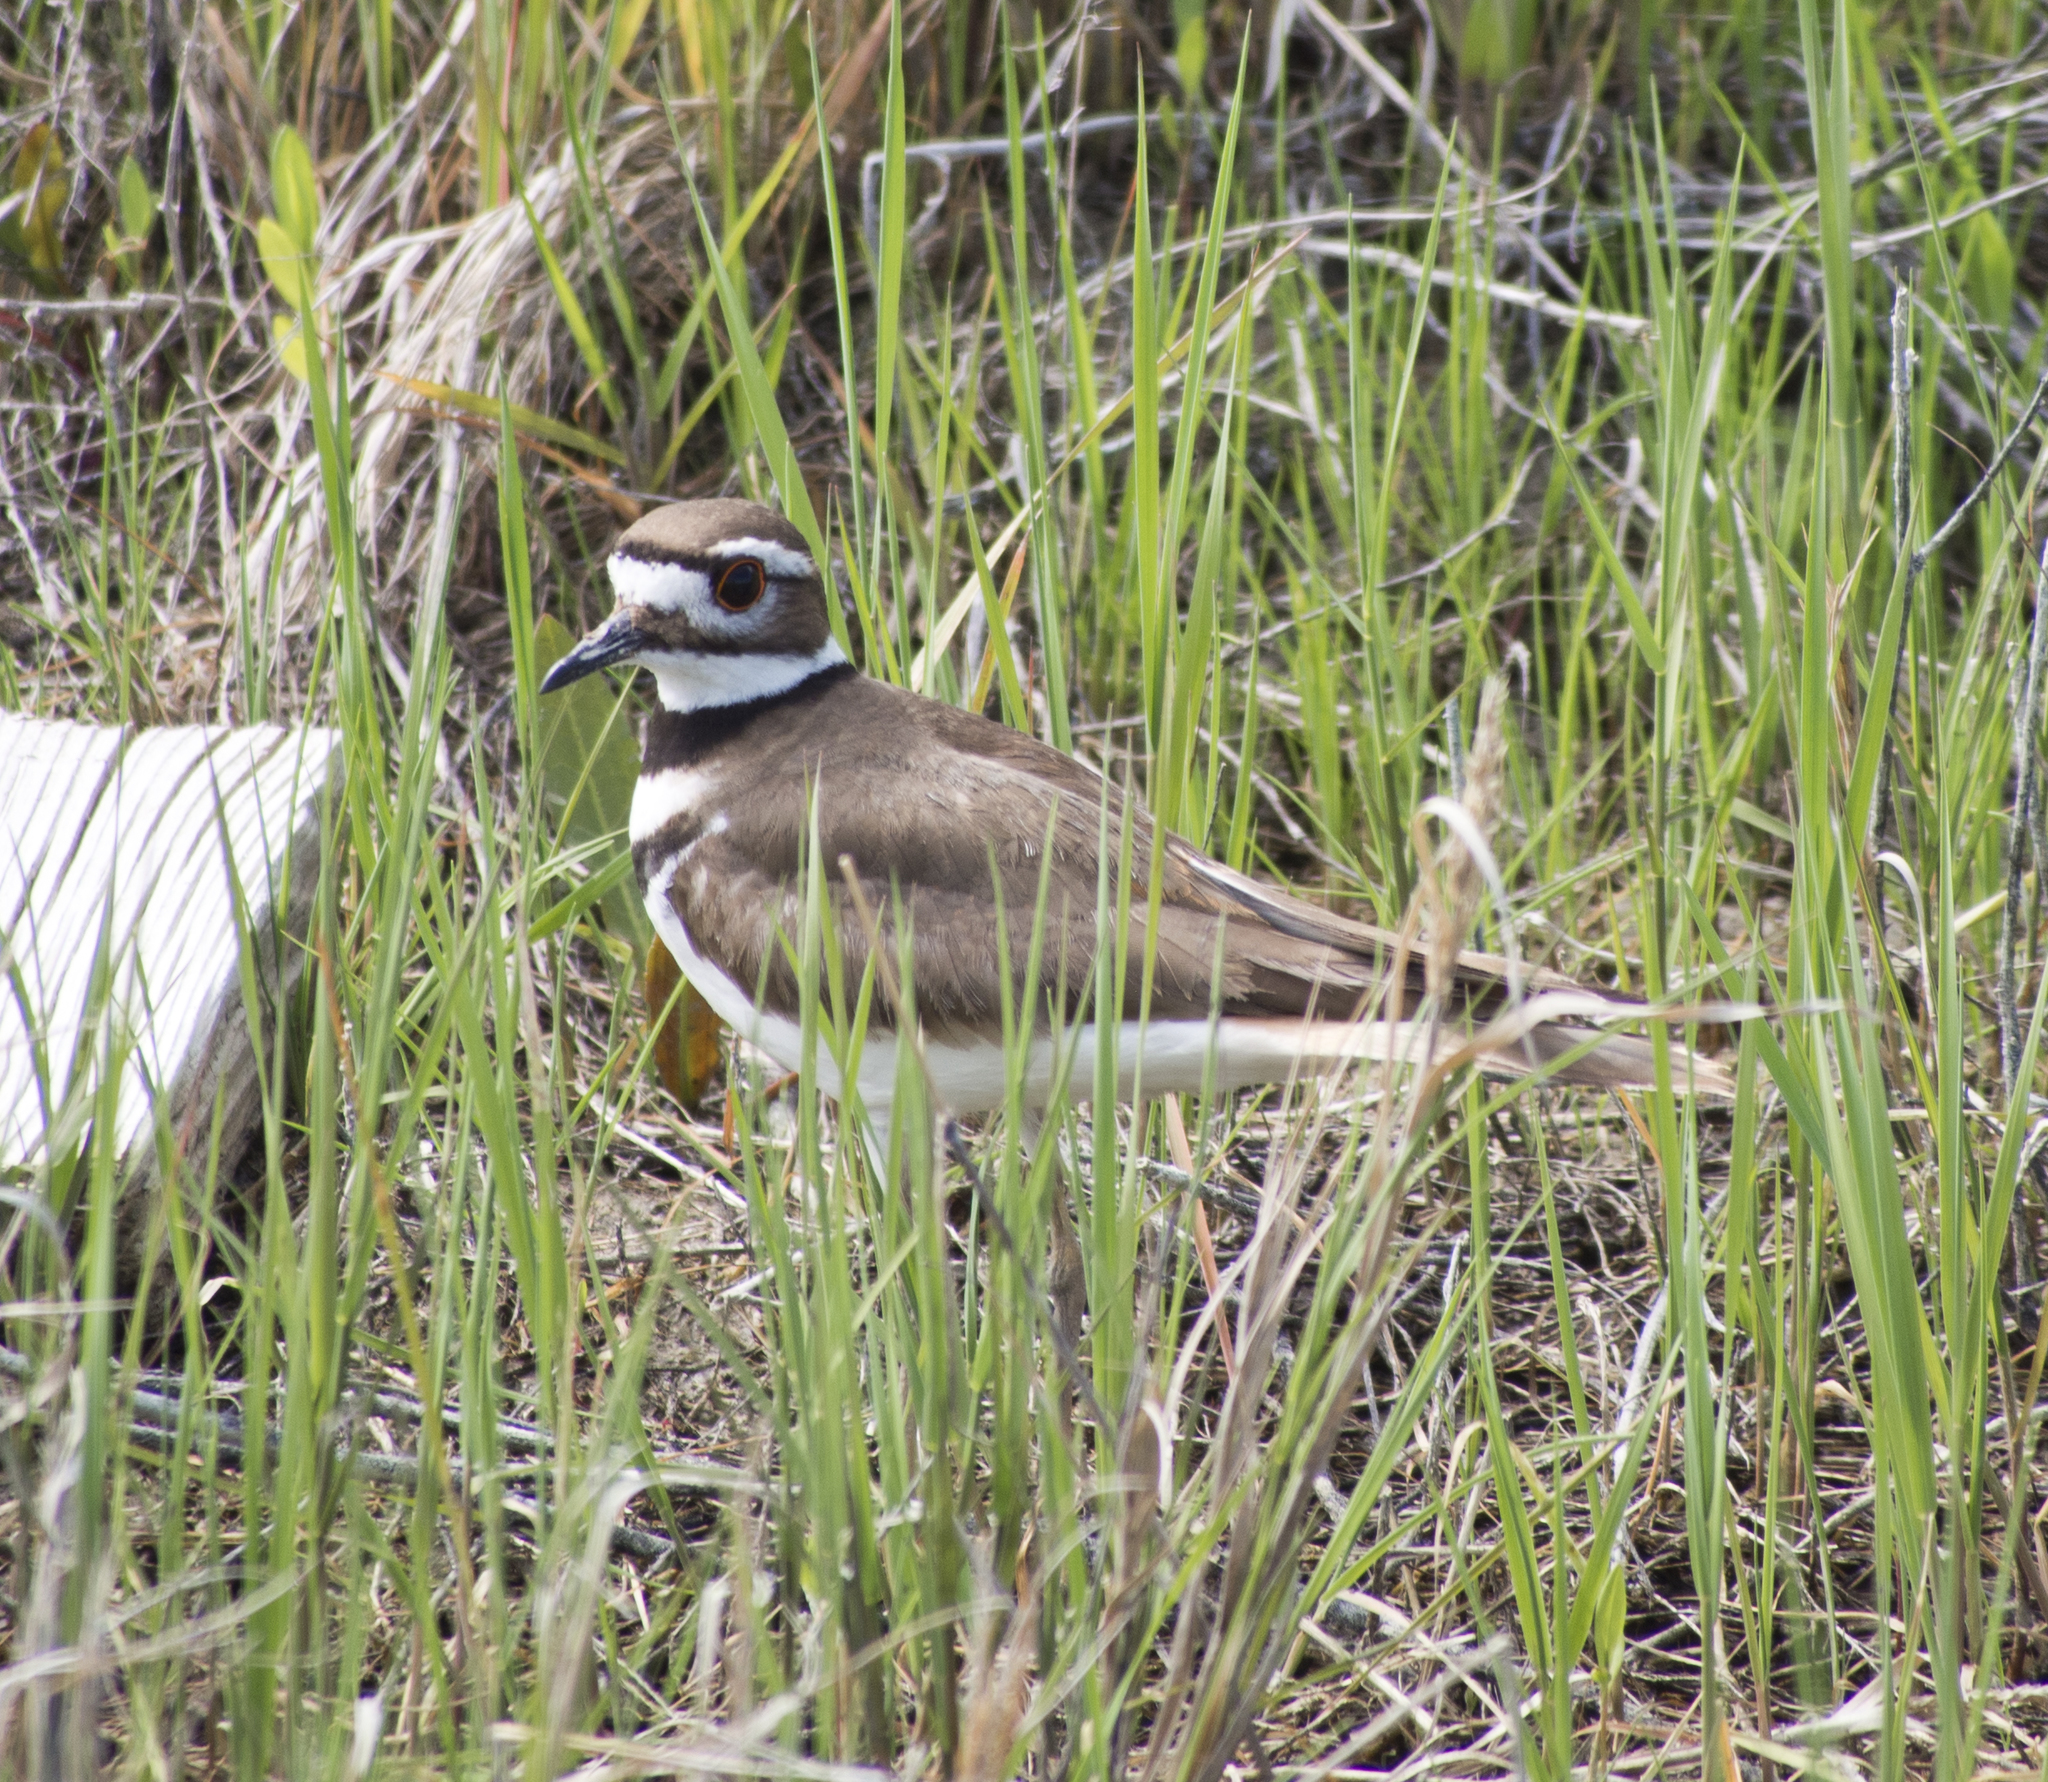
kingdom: Animalia
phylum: Chordata
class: Aves
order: Charadriiformes
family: Charadriidae
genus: Charadrius
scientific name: Charadrius vociferus
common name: Killdeer
